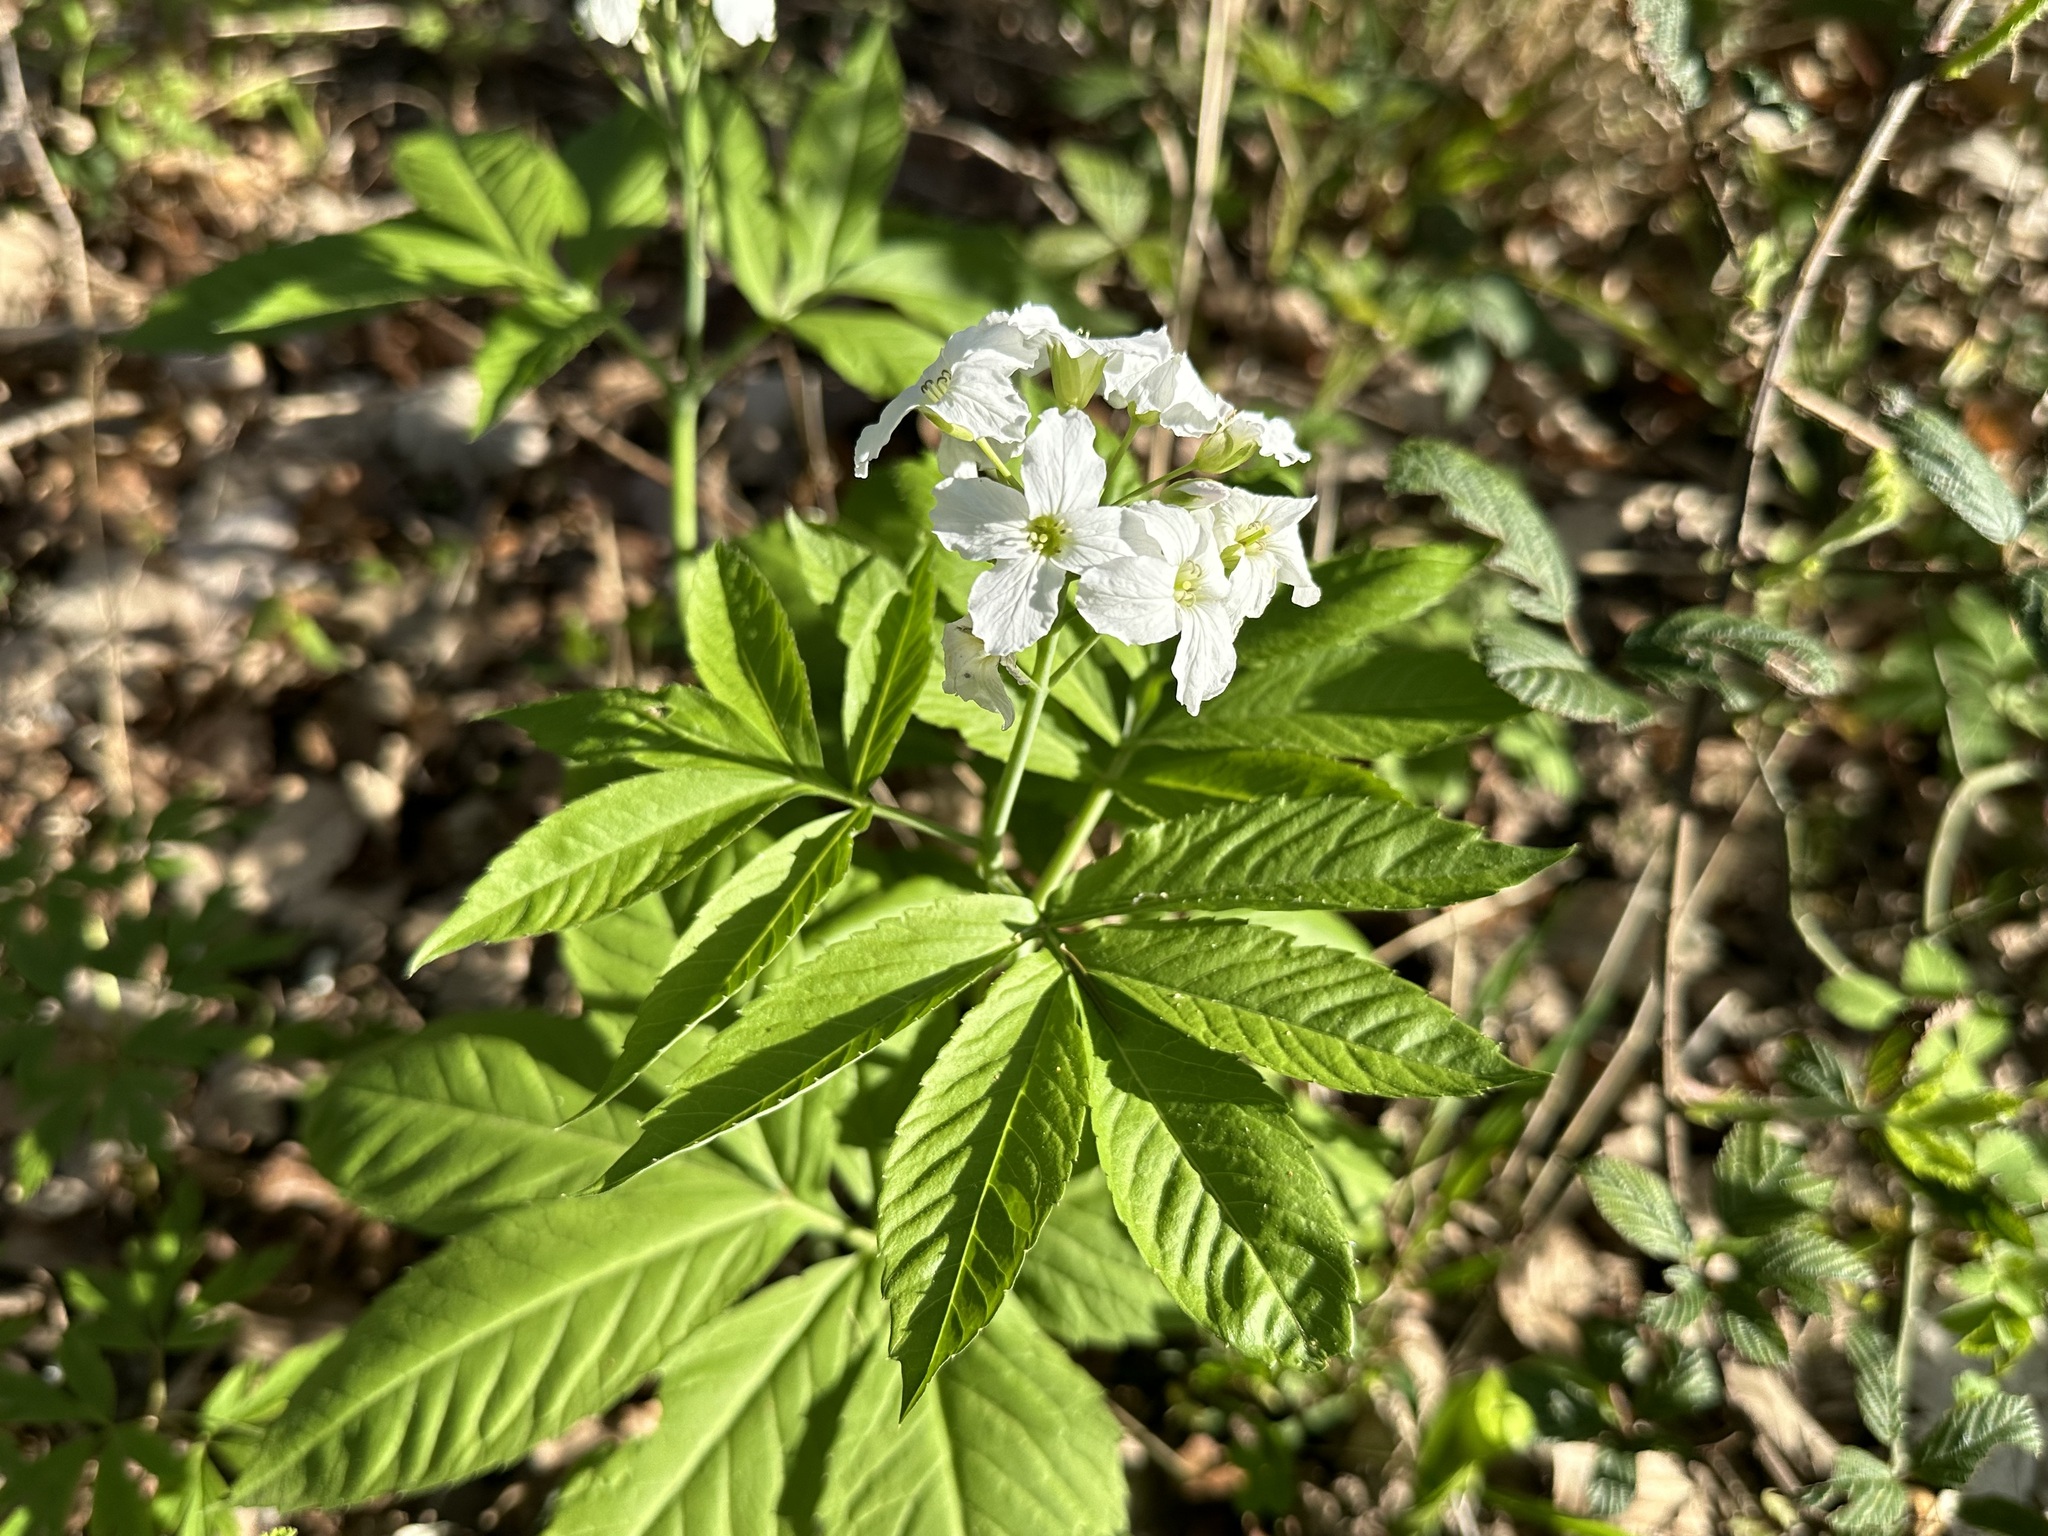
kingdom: Plantae
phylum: Tracheophyta
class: Magnoliopsida
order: Brassicales
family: Brassicaceae
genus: Cardamine
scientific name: Cardamine heptaphylla
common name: Pinnate coralroot
